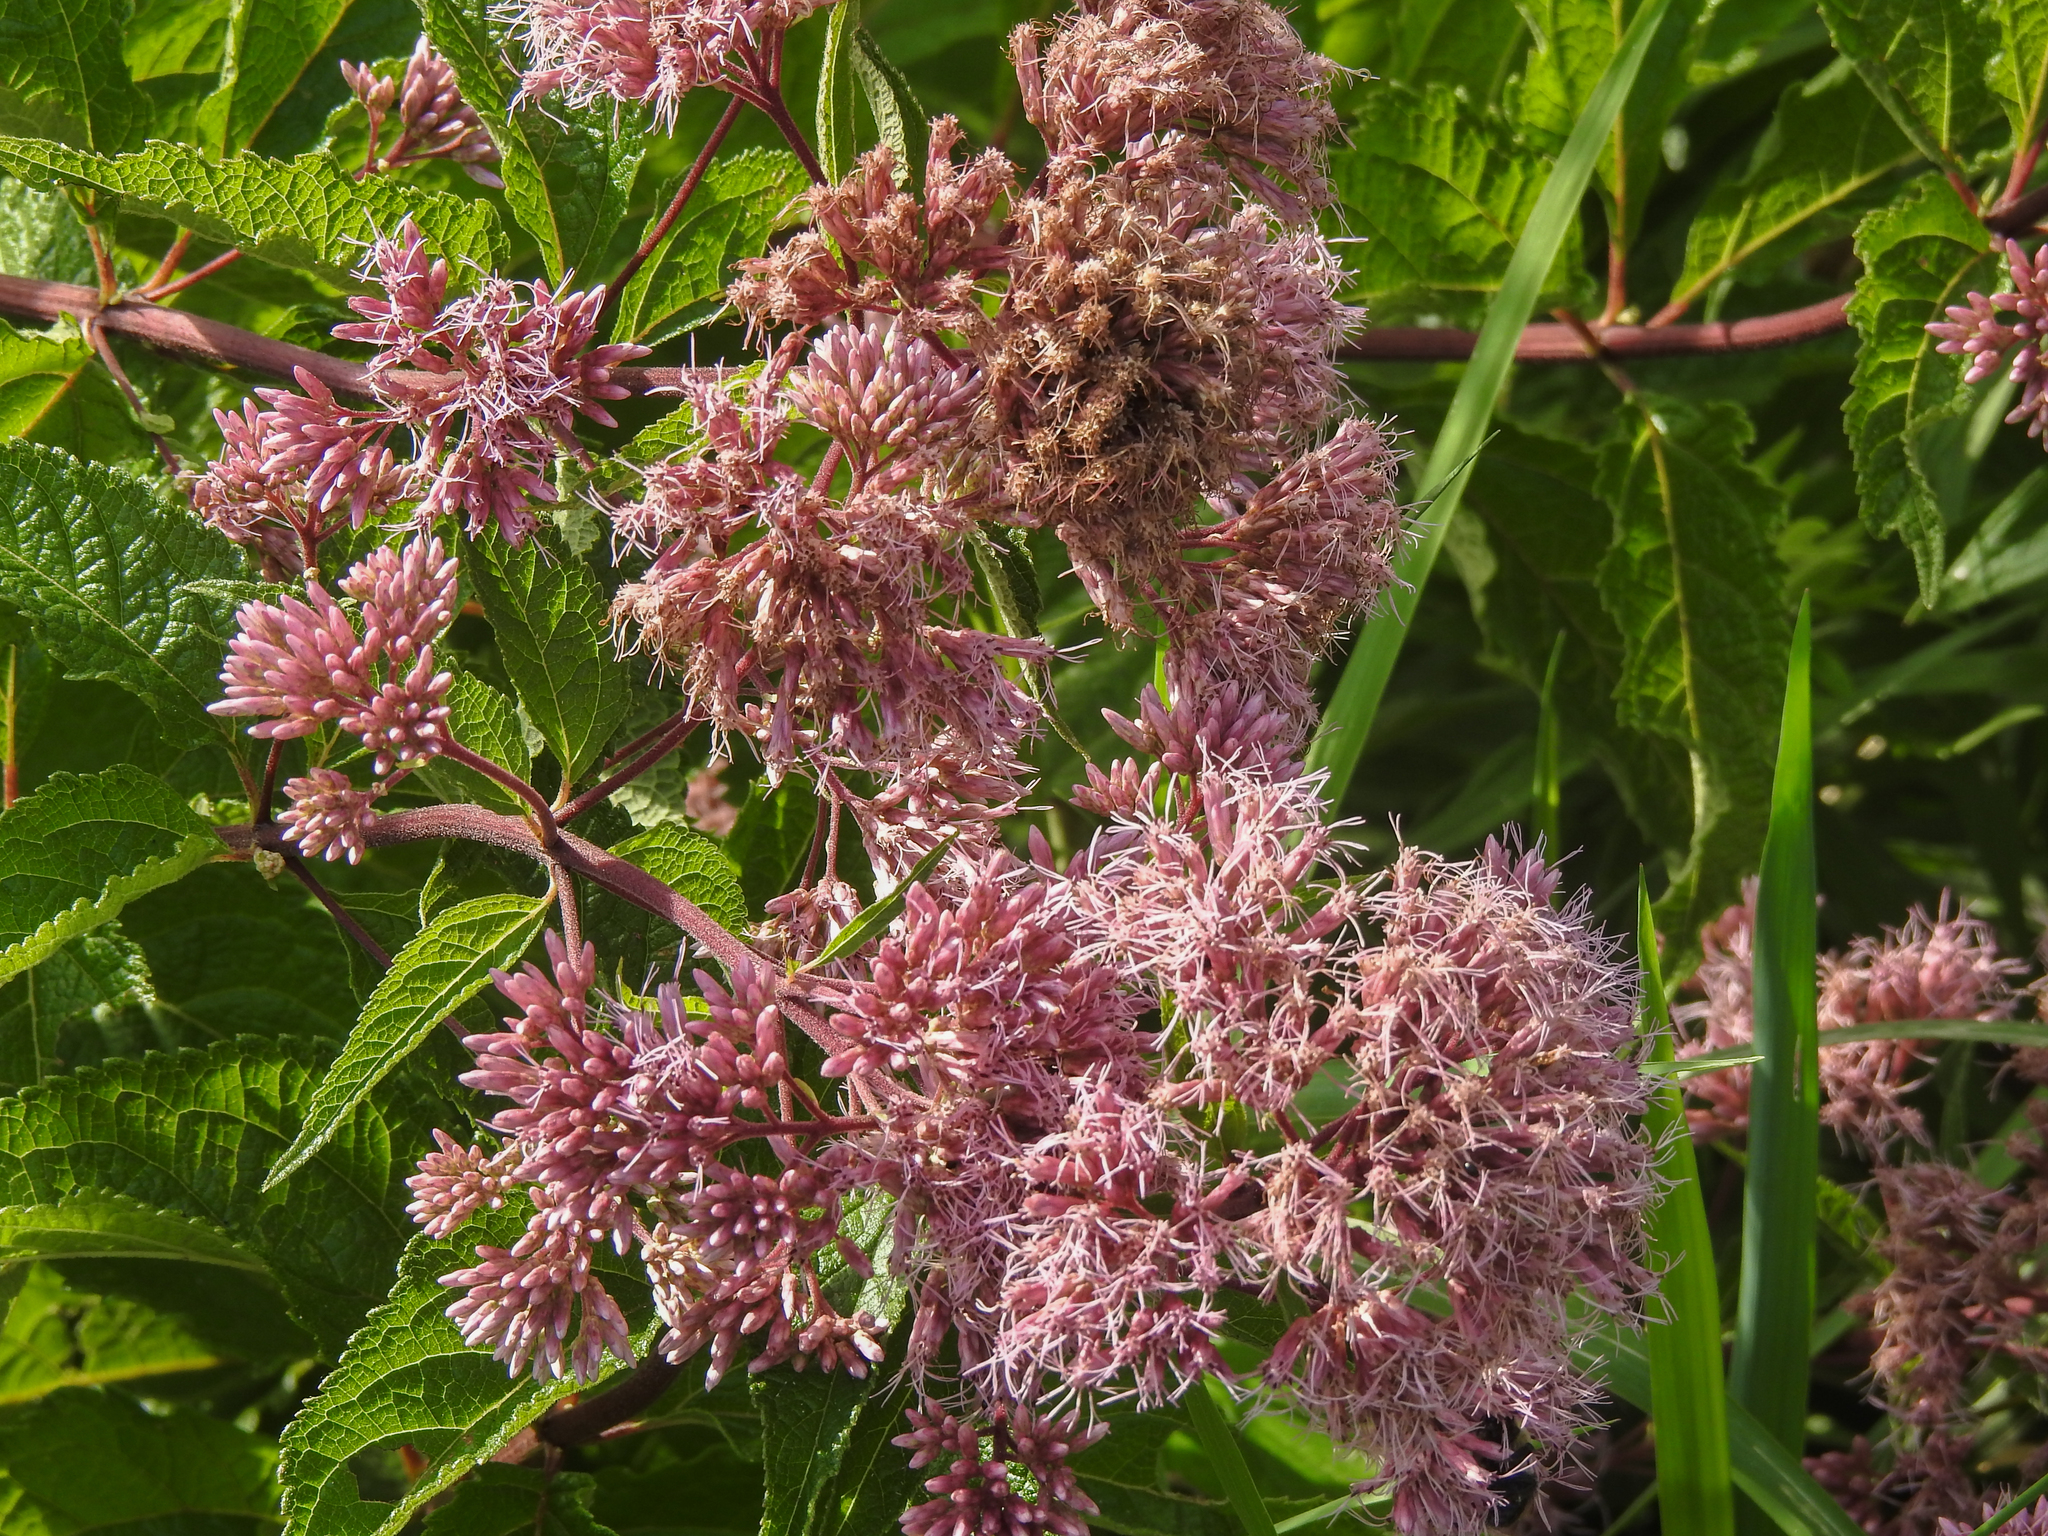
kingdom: Plantae
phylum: Tracheophyta
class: Magnoliopsida
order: Asterales
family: Asteraceae
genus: Eutrochium
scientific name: Eutrochium dubium
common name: Coastal plain joe pye weed
